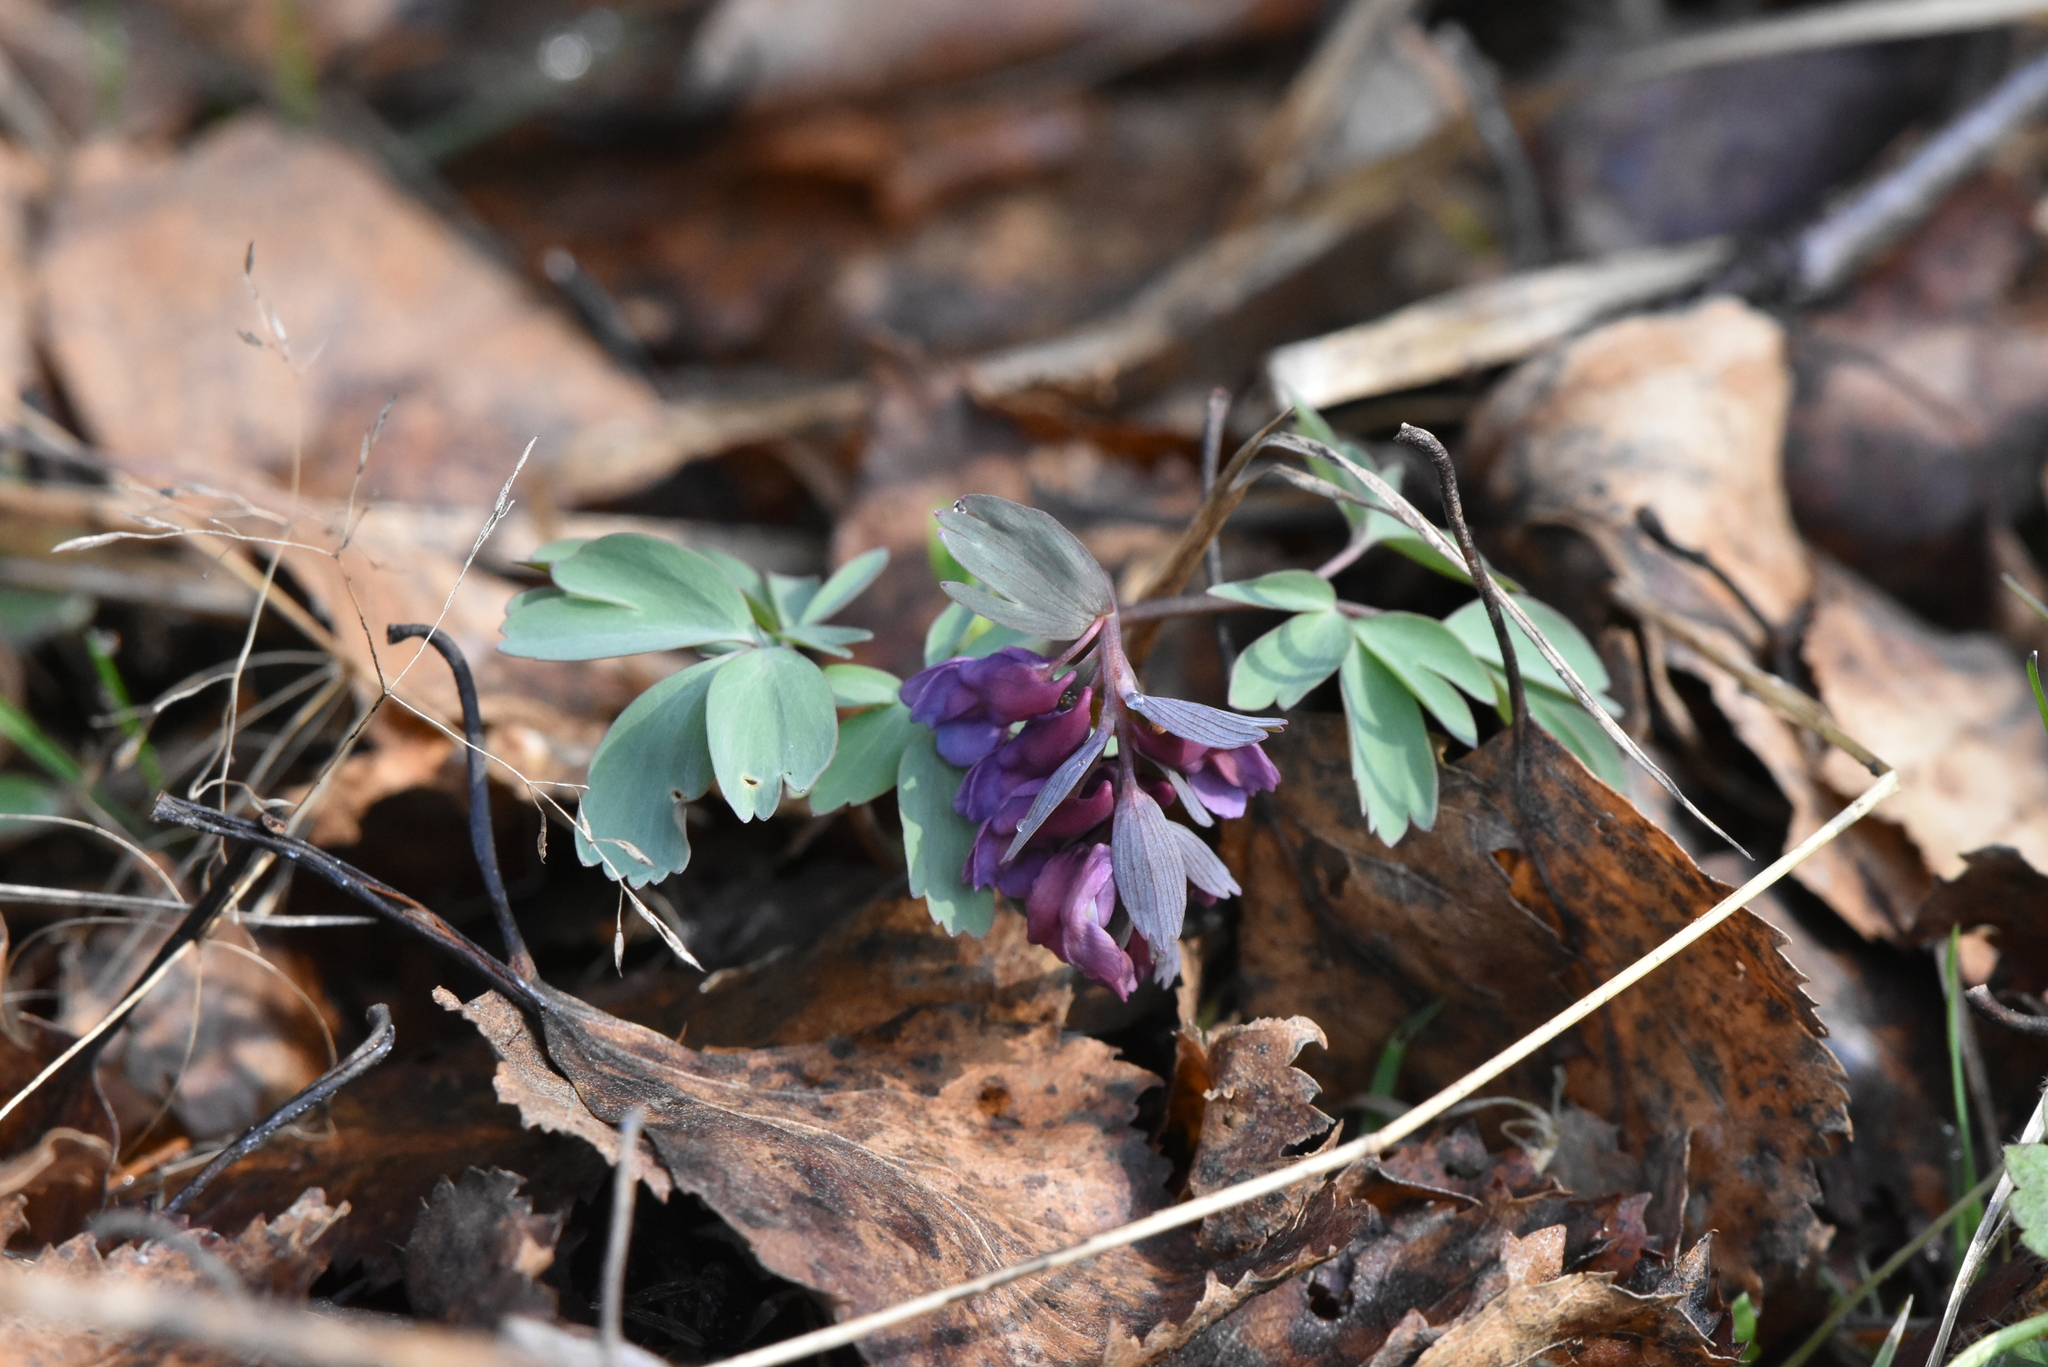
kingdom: Plantae
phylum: Tracheophyta
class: Magnoliopsida
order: Ranunculales
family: Papaveraceae
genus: Corydalis
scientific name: Corydalis solida
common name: Bird-in-a-bush
